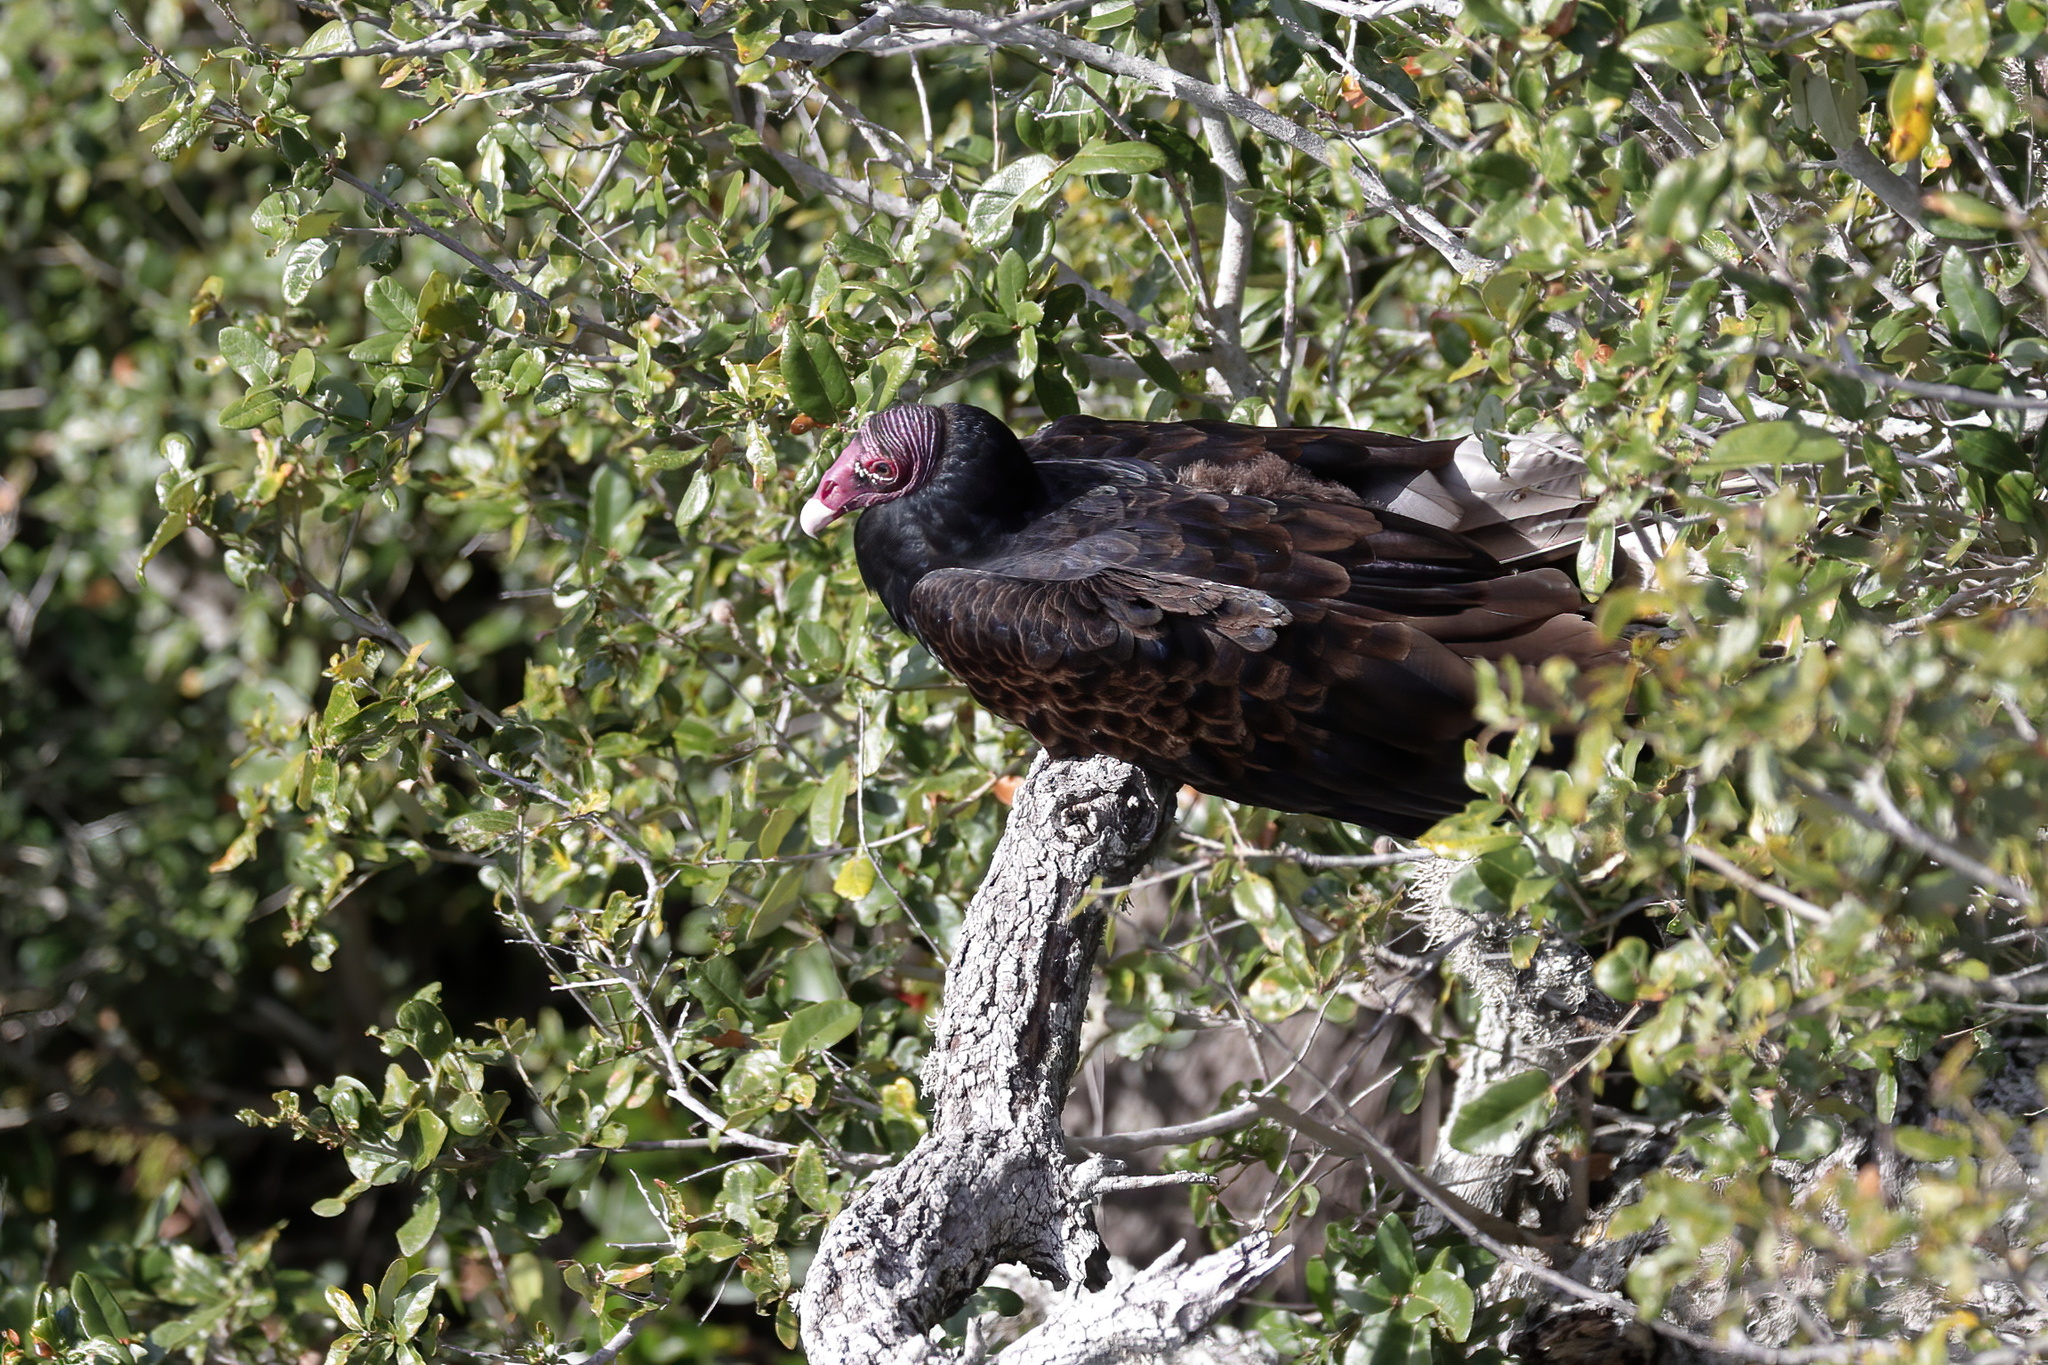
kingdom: Animalia
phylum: Chordata
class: Aves
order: Accipitriformes
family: Cathartidae
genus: Cathartes
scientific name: Cathartes aura
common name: Turkey vulture
